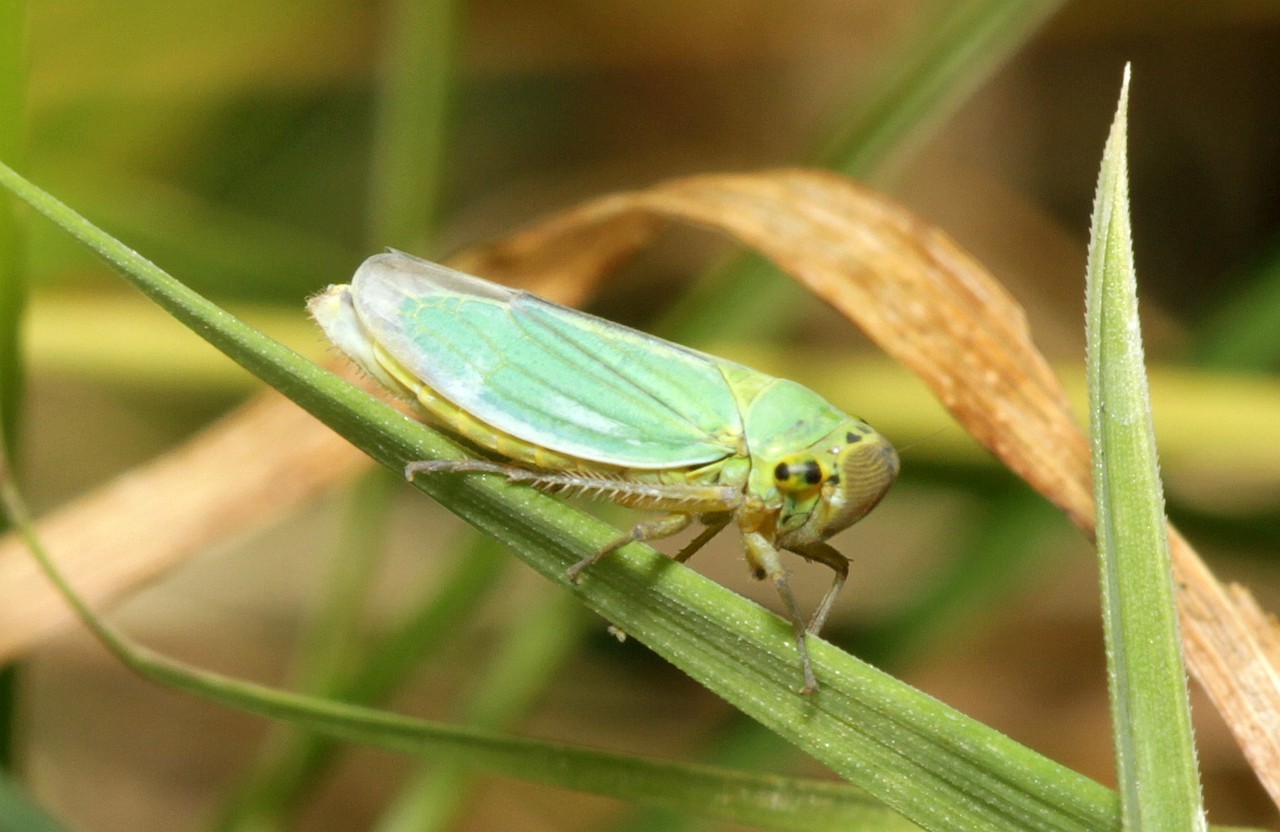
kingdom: Animalia
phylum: Arthropoda
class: Insecta
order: Hemiptera
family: Cicadellidae
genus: Cicadella
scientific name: Cicadella viridis
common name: Leafhopper
